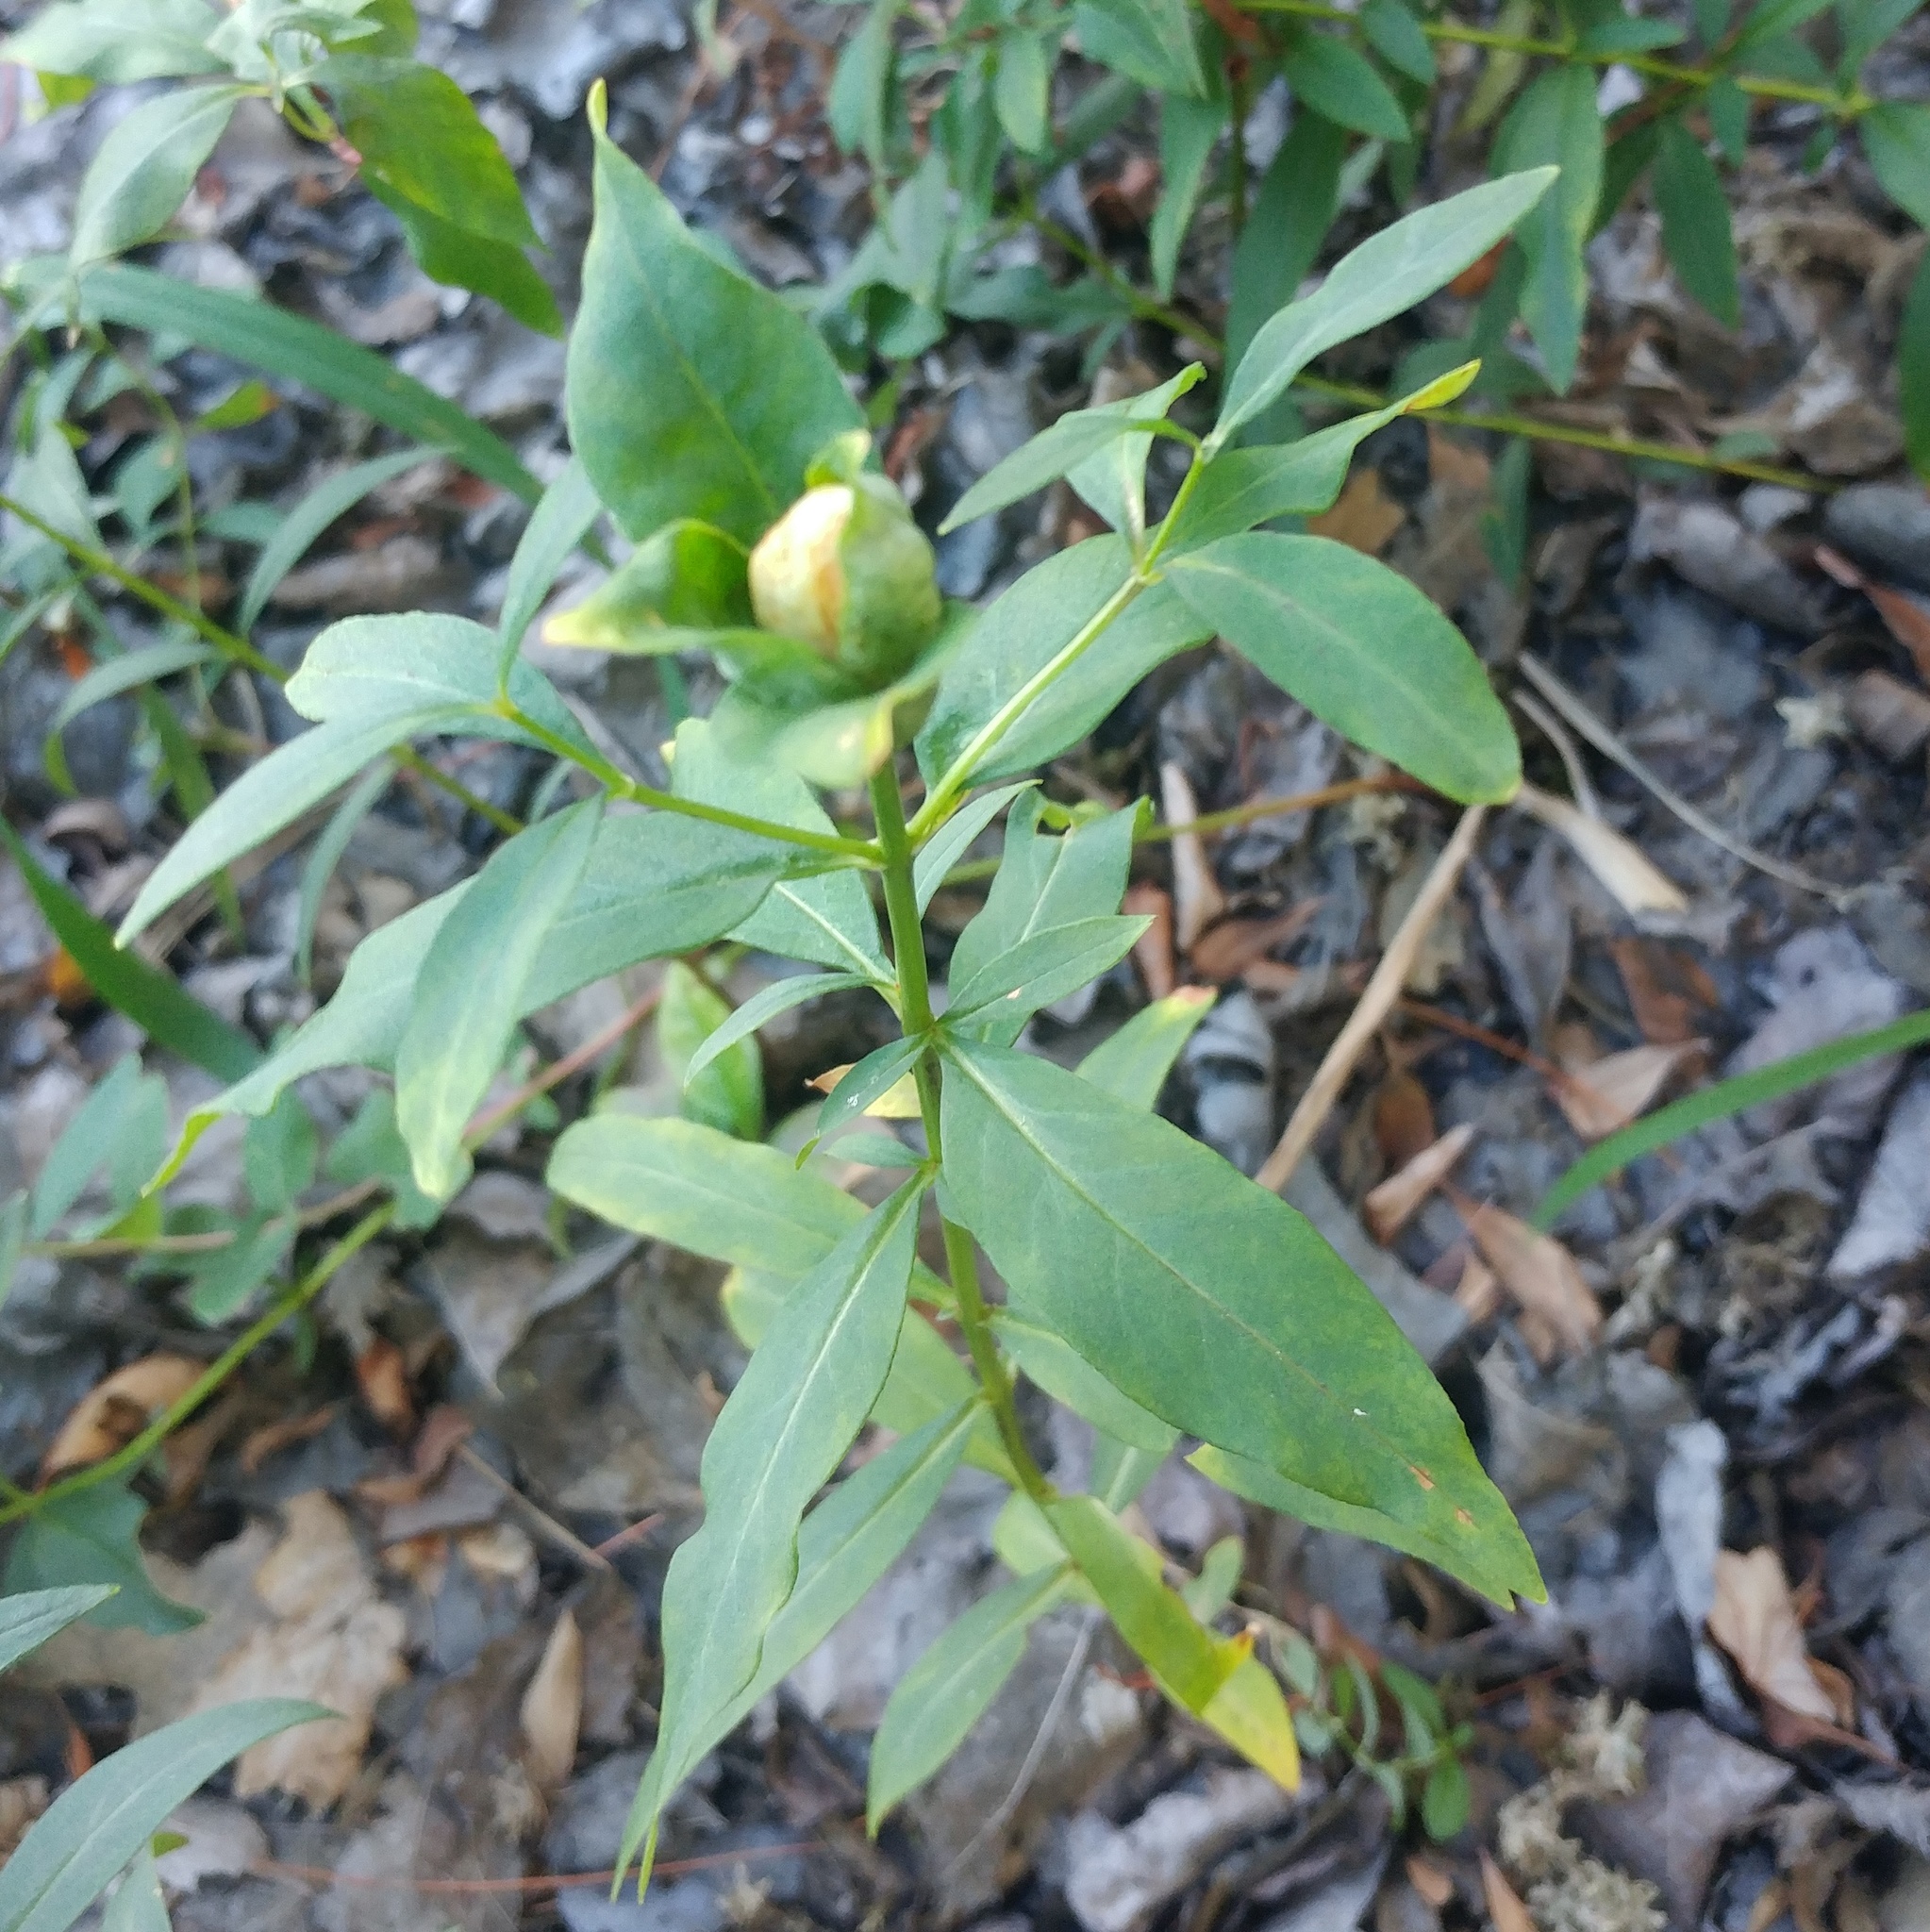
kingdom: Plantae
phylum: Tracheophyta
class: Magnoliopsida
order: Lamiales
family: Plantaginaceae
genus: Chelone
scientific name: Chelone glabra
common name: Snakehead
